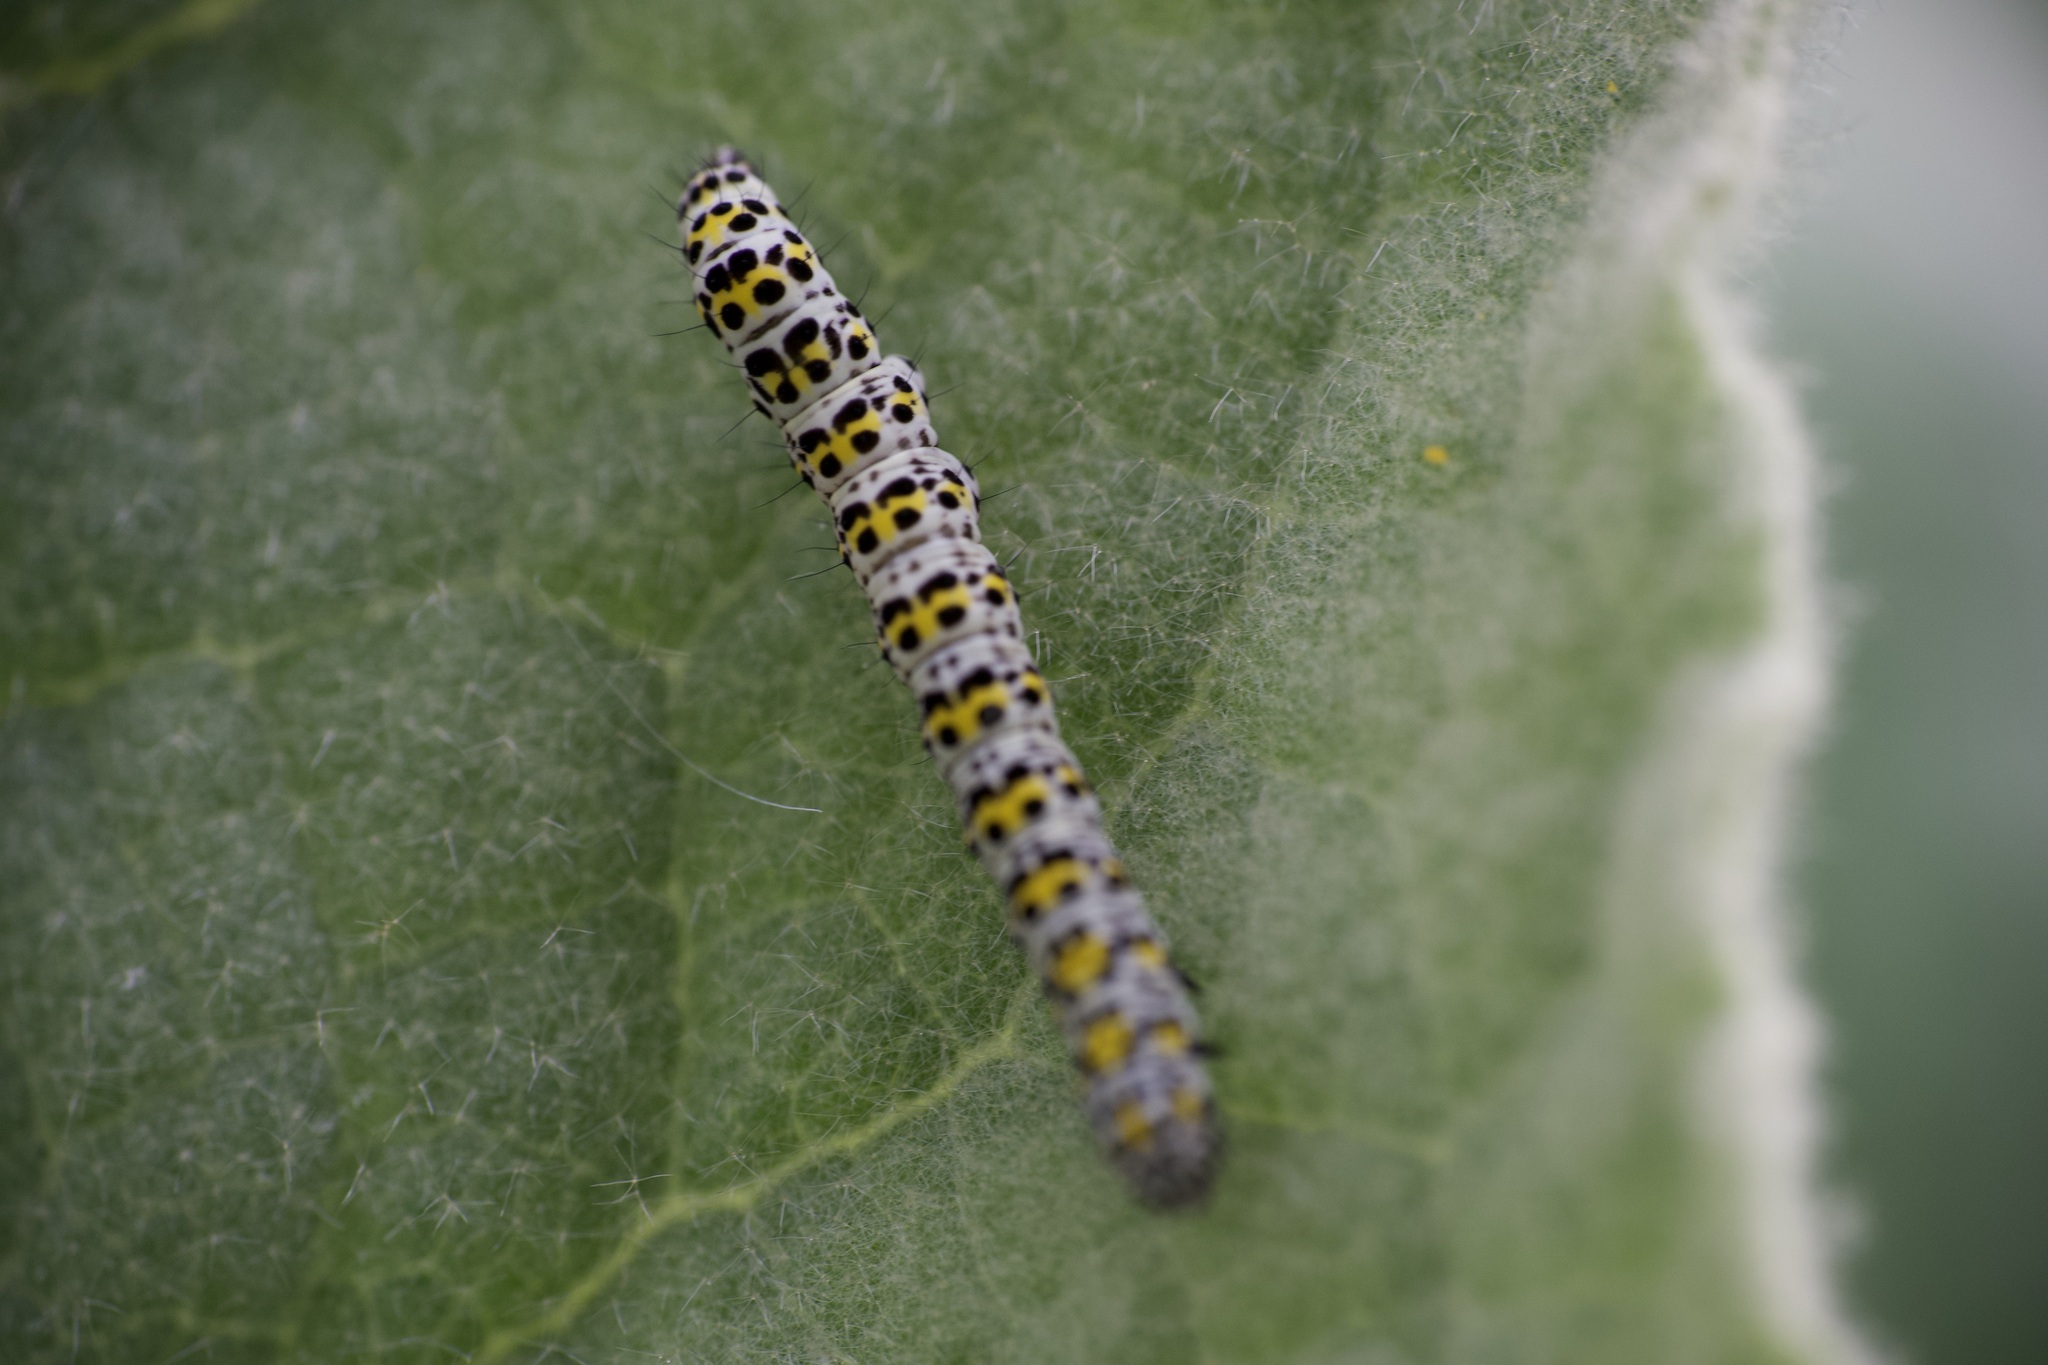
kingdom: Animalia
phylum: Arthropoda
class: Insecta
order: Lepidoptera
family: Noctuidae
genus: Cucullia
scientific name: Cucullia verbasci
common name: Mullein
